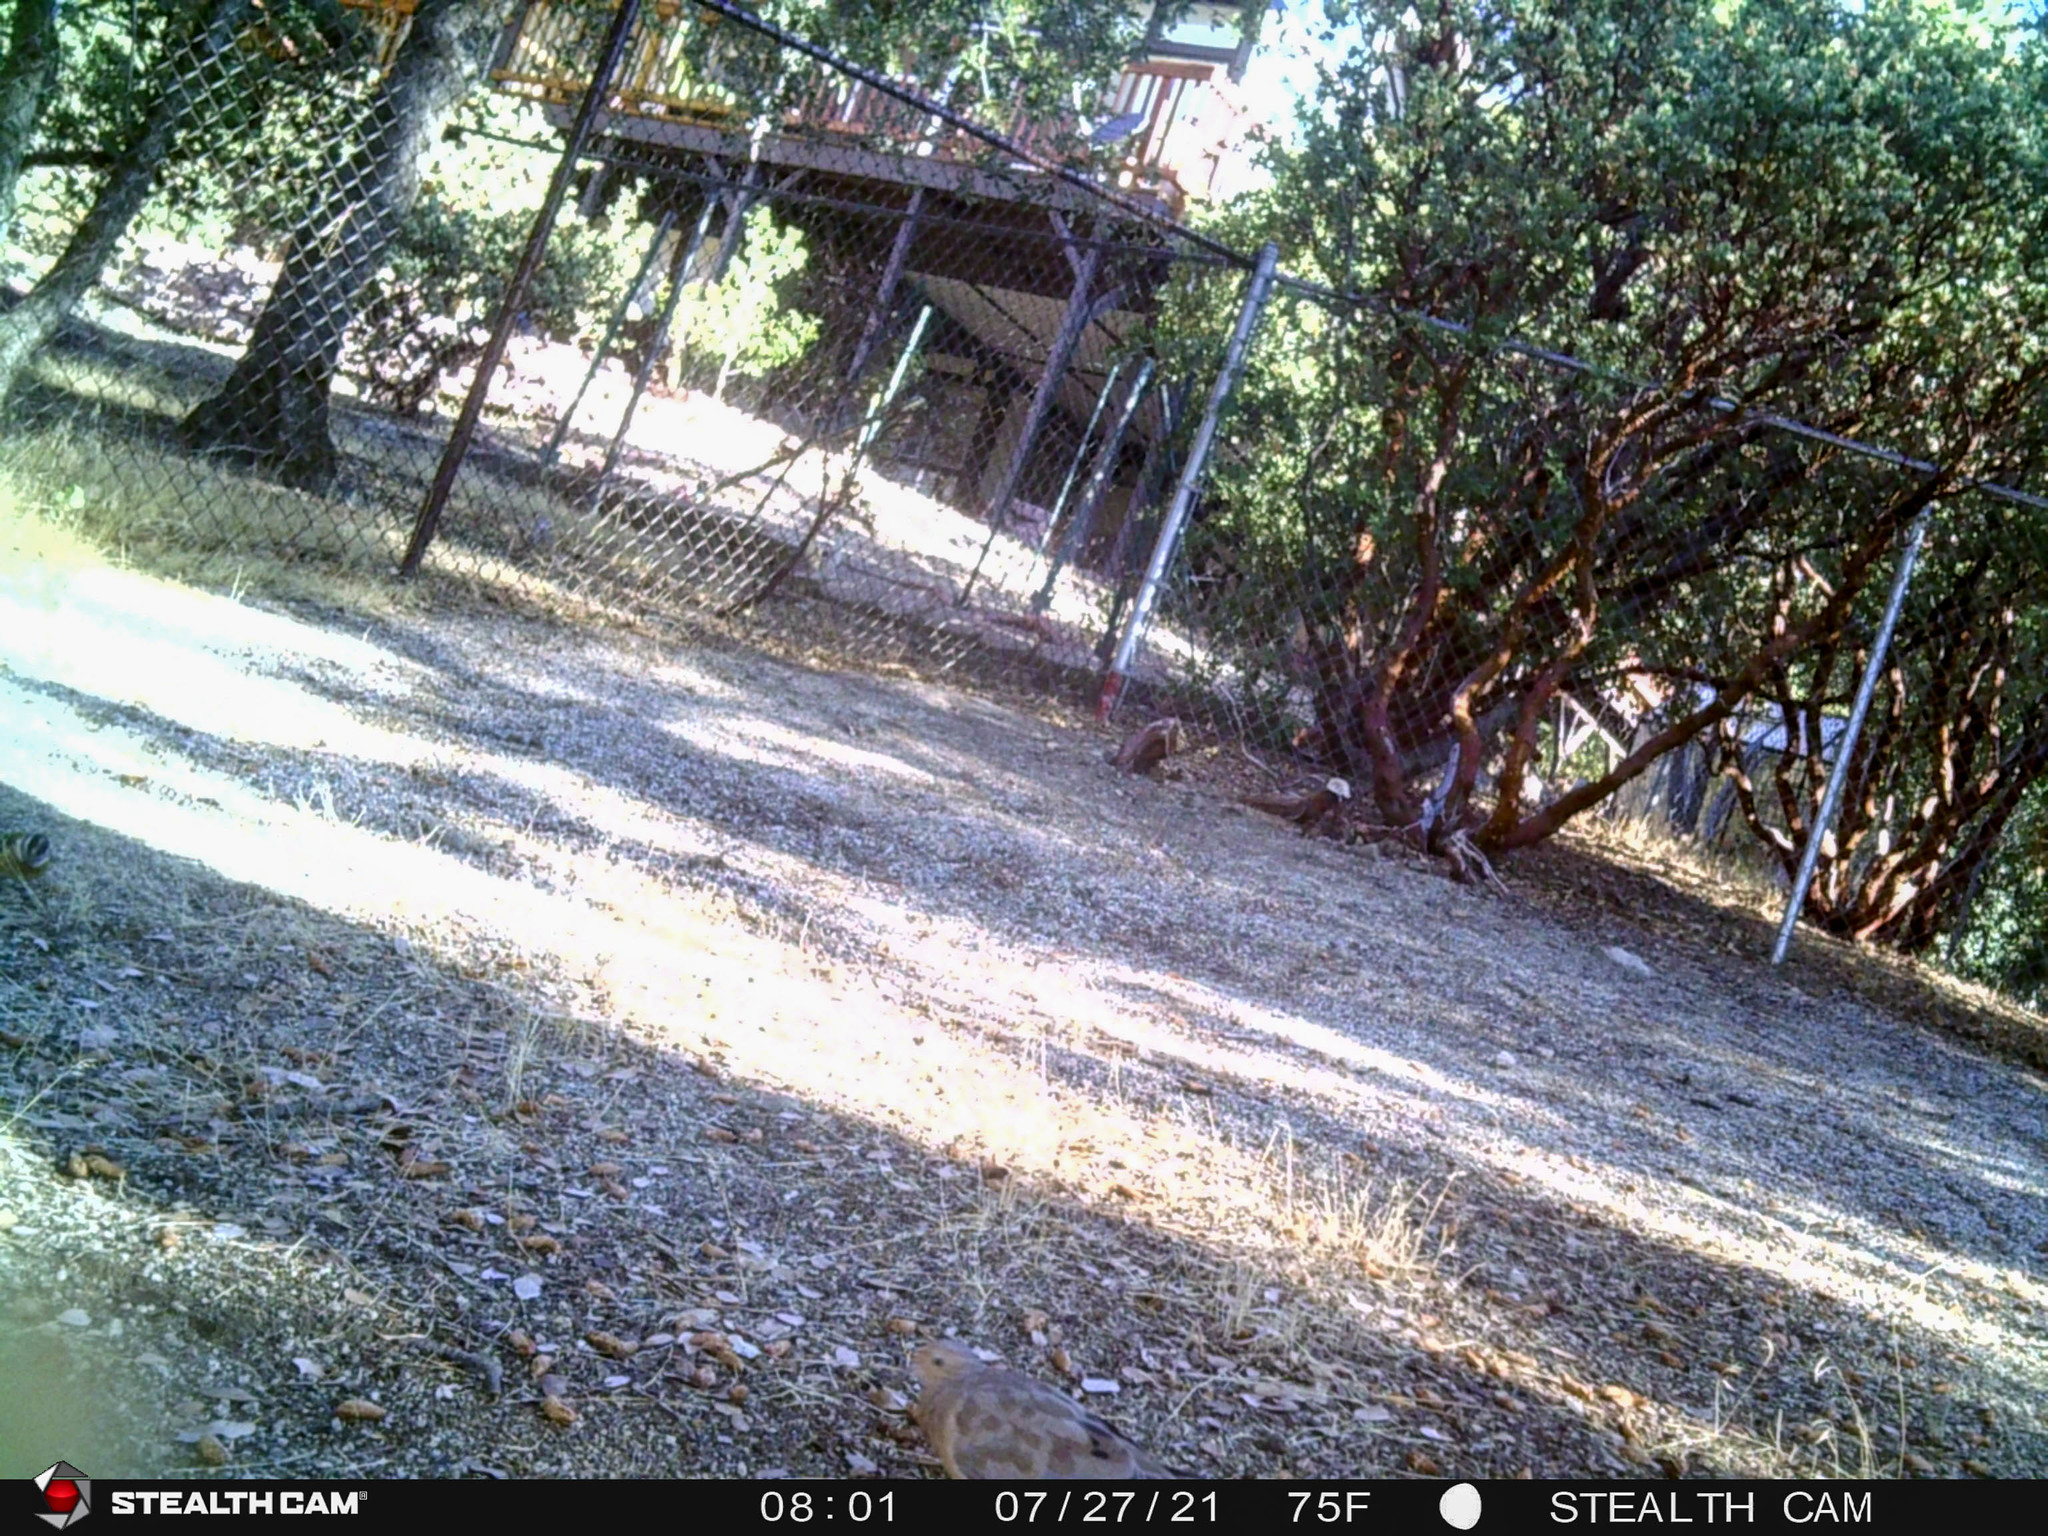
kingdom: Animalia
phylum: Chordata
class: Aves
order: Passeriformes
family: Cardinalidae
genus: Pheucticus
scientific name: Pheucticus melanocephalus
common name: Black-headed grosbeak
